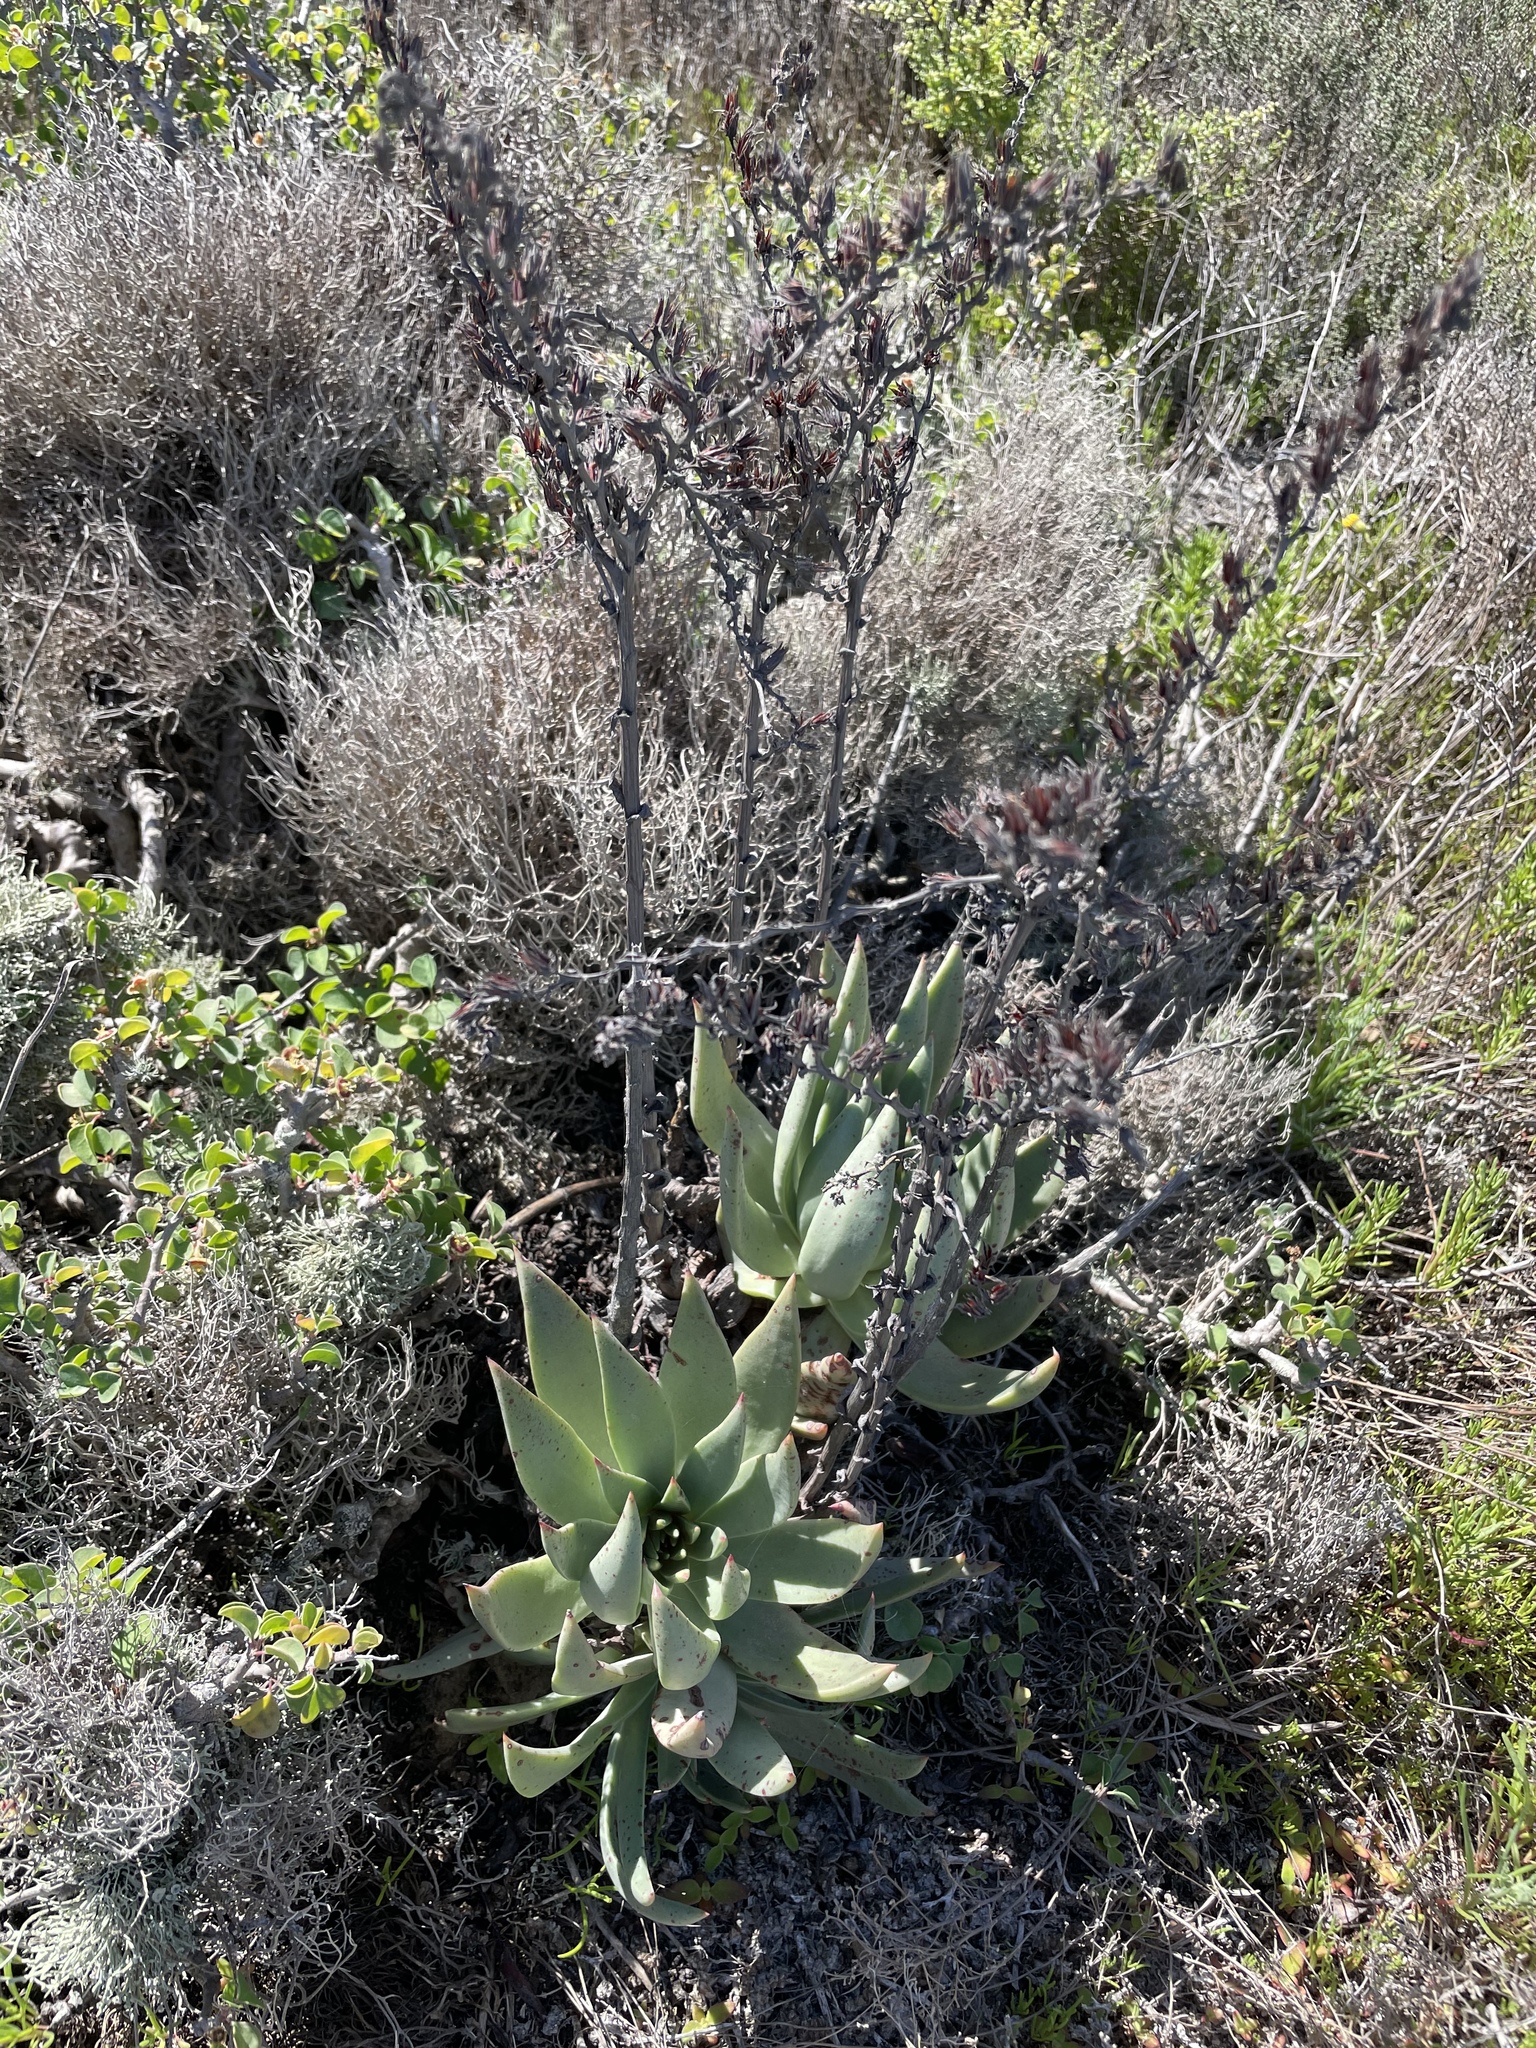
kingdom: Plantae
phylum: Tracheophyta
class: Magnoliopsida
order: Saxifragales
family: Crassulaceae
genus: Dudleya
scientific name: Dudleya cultrata
